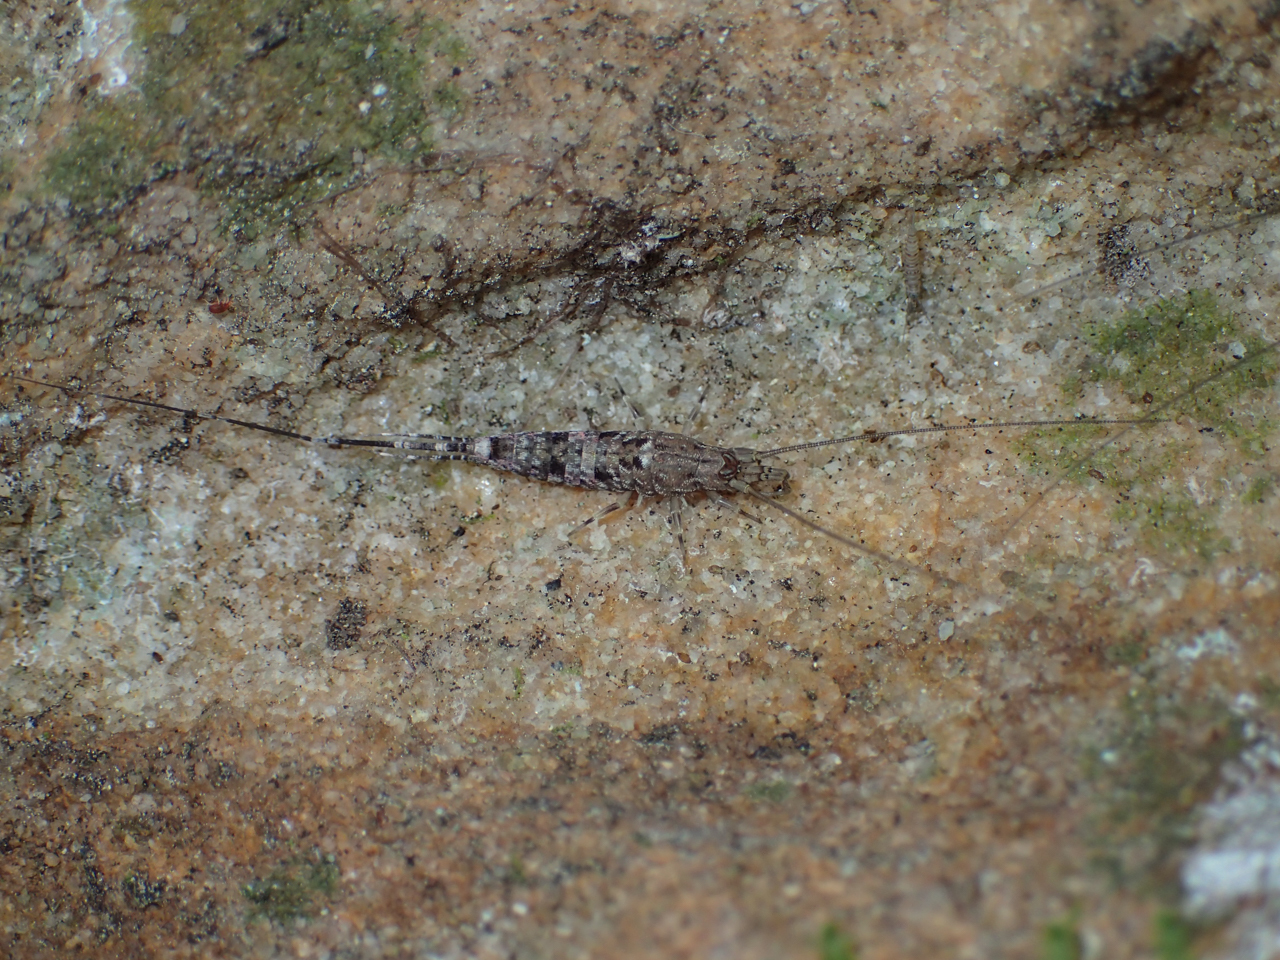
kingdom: Animalia
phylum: Arthropoda
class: Insecta
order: Archaeognatha
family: Meinertellidae
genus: Machiloides
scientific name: Machiloides banksi
